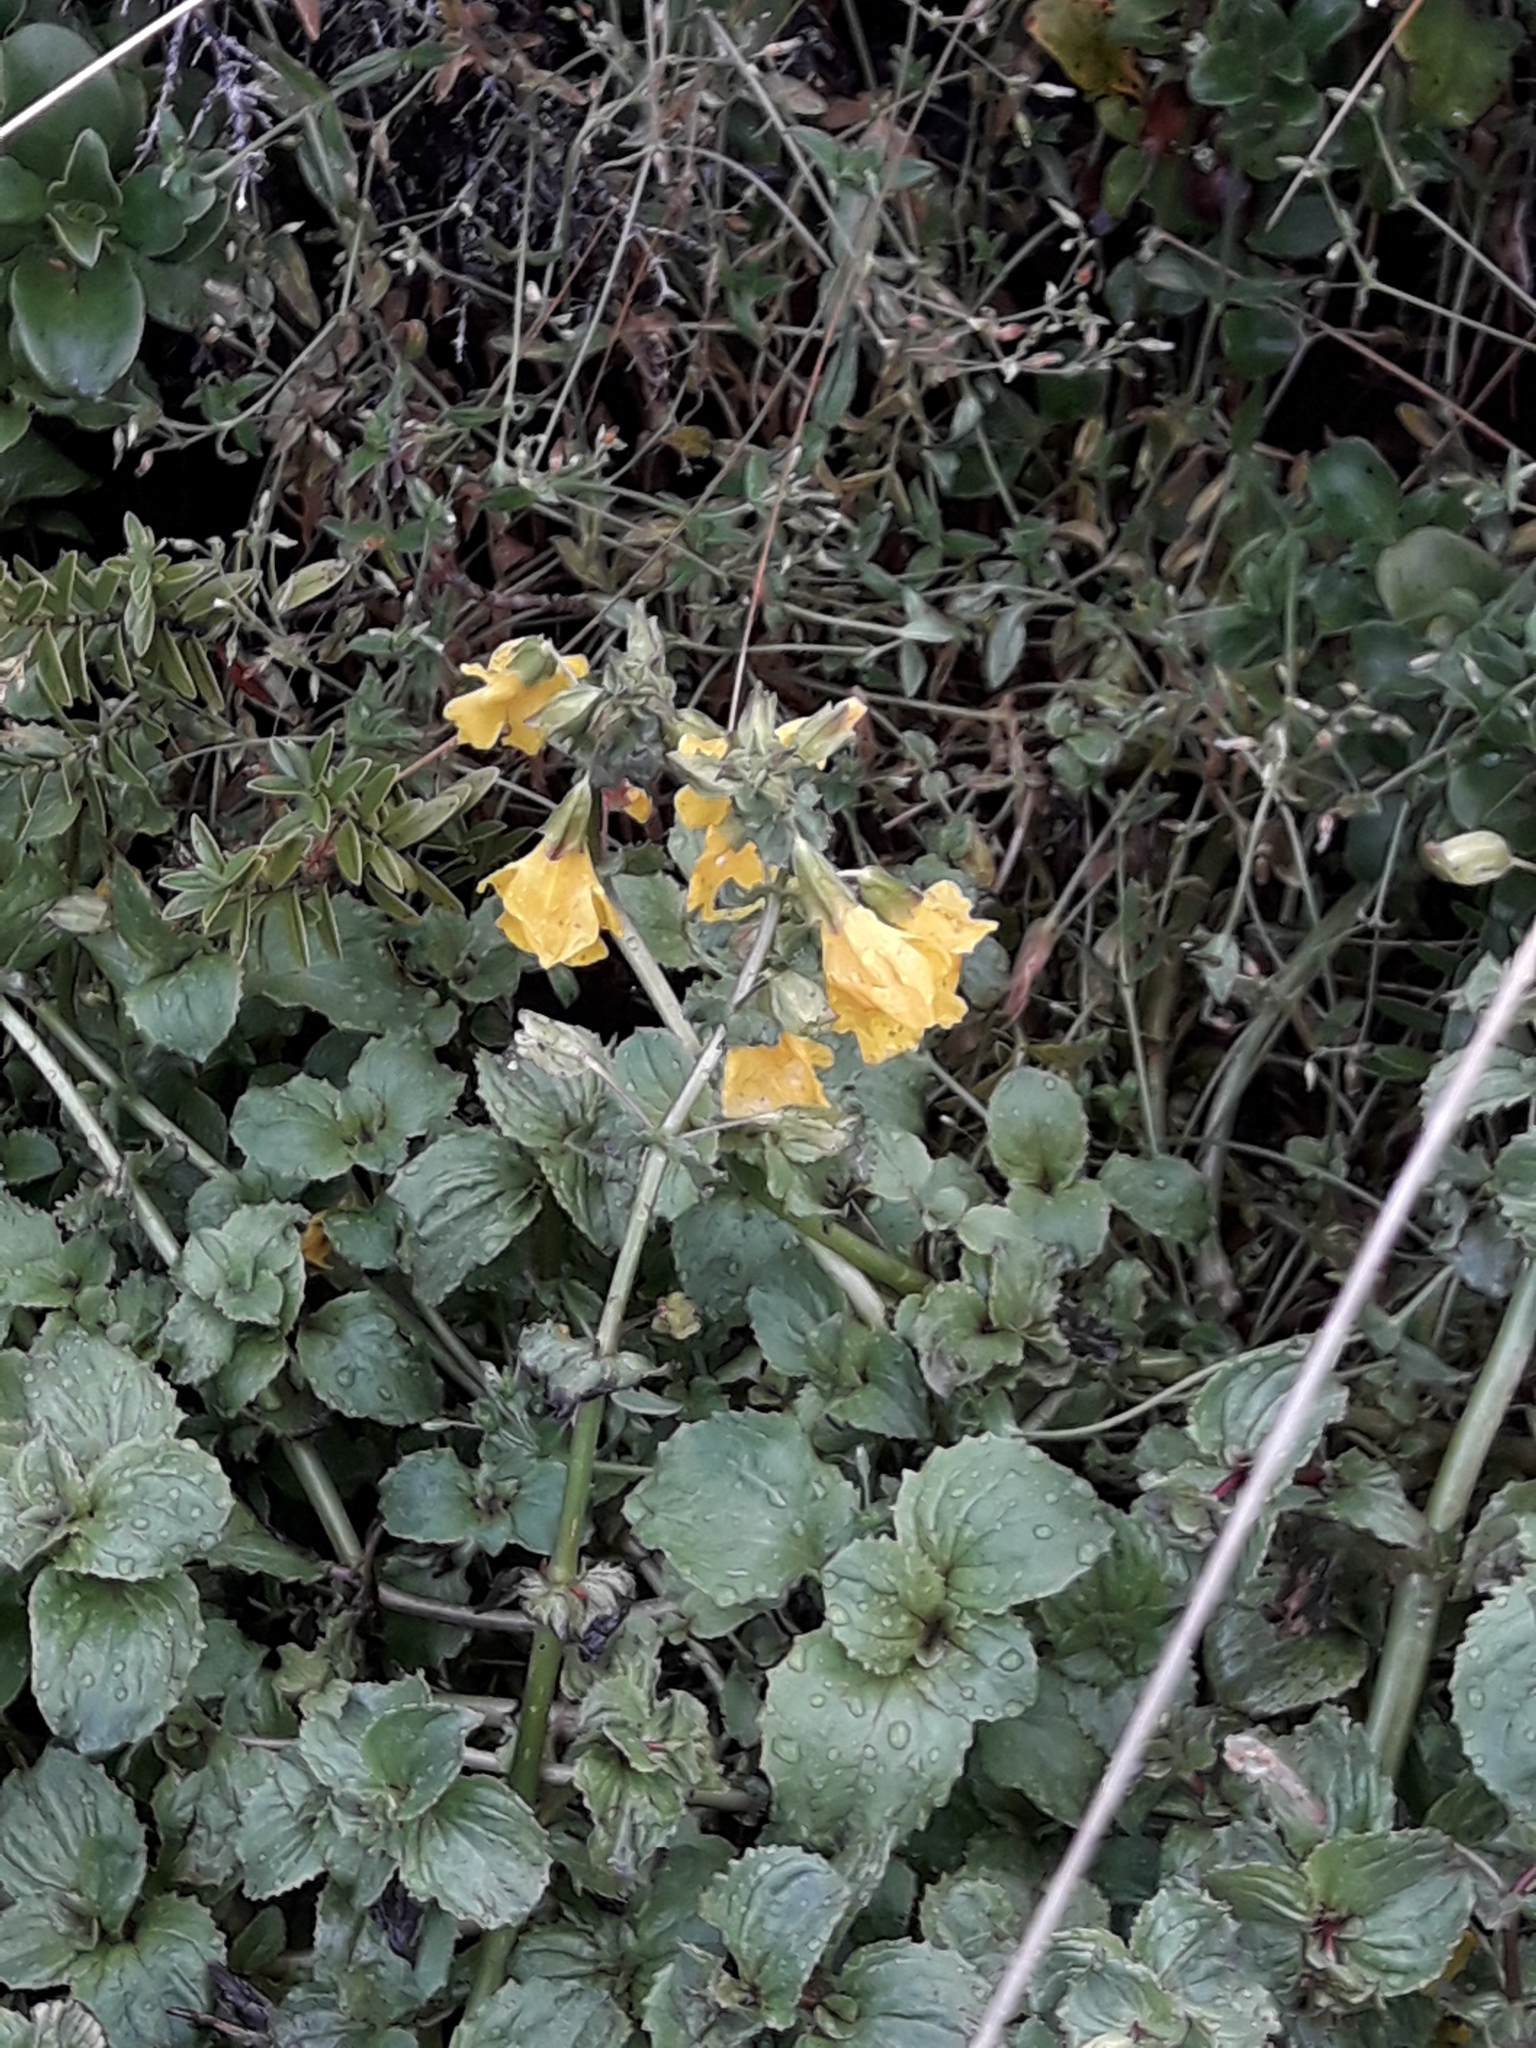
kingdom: Plantae
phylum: Tracheophyta
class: Magnoliopsida
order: Lamiales
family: Phrymaceae
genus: Erythranthe
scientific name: Erythranthe guttata
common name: Monkeyflower
